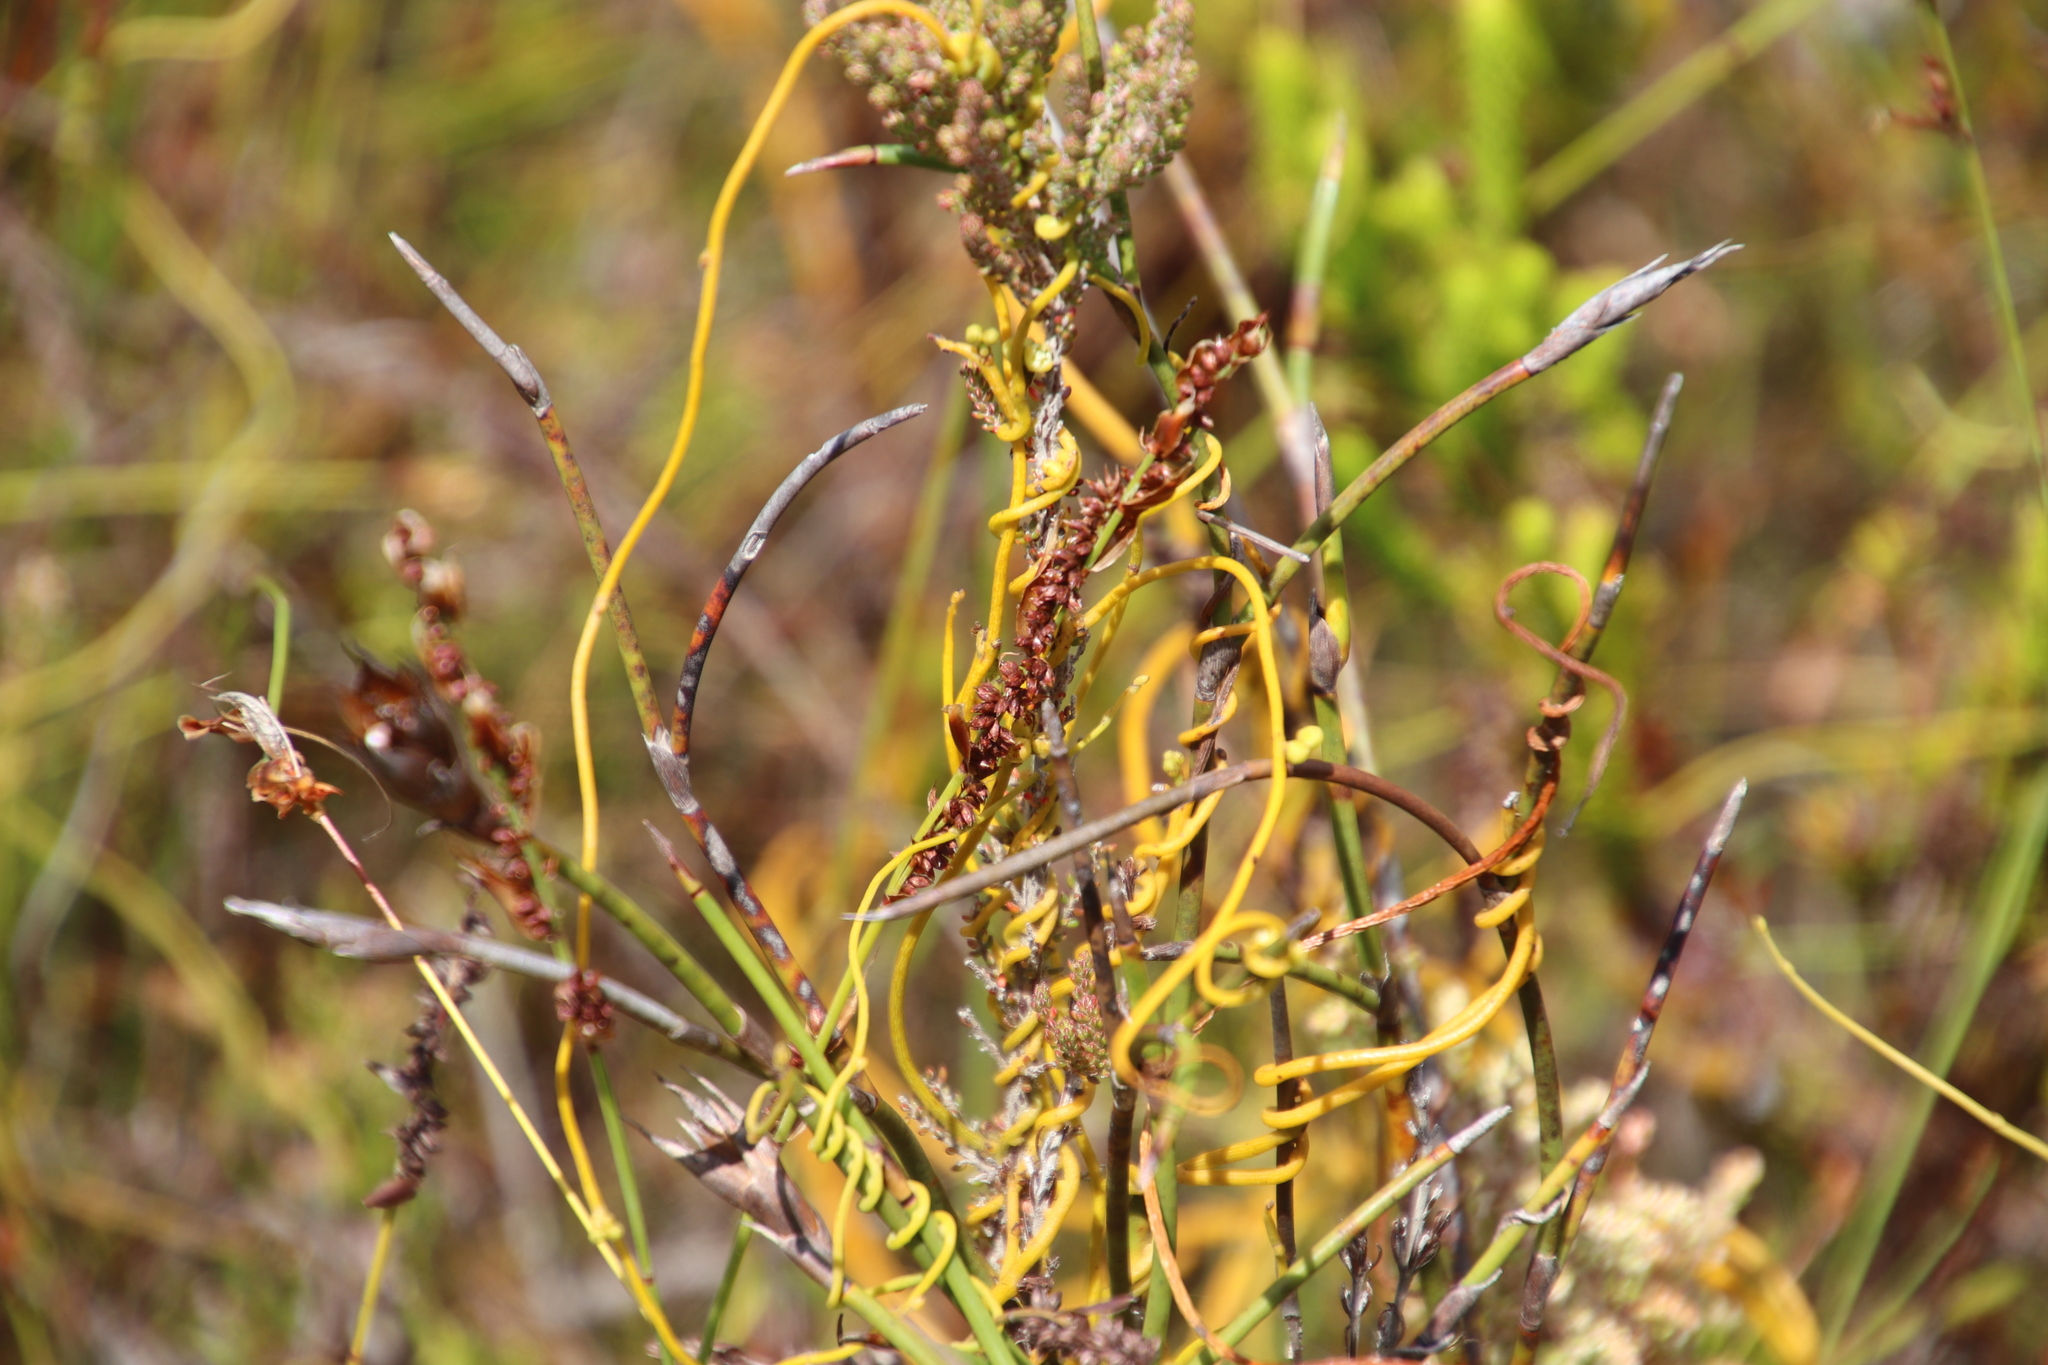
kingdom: Plantae
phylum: Tracheophyta
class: Magnoliopsida
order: Laurales
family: Lauraceae
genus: Cassytha
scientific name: Cassytha ciliolata
